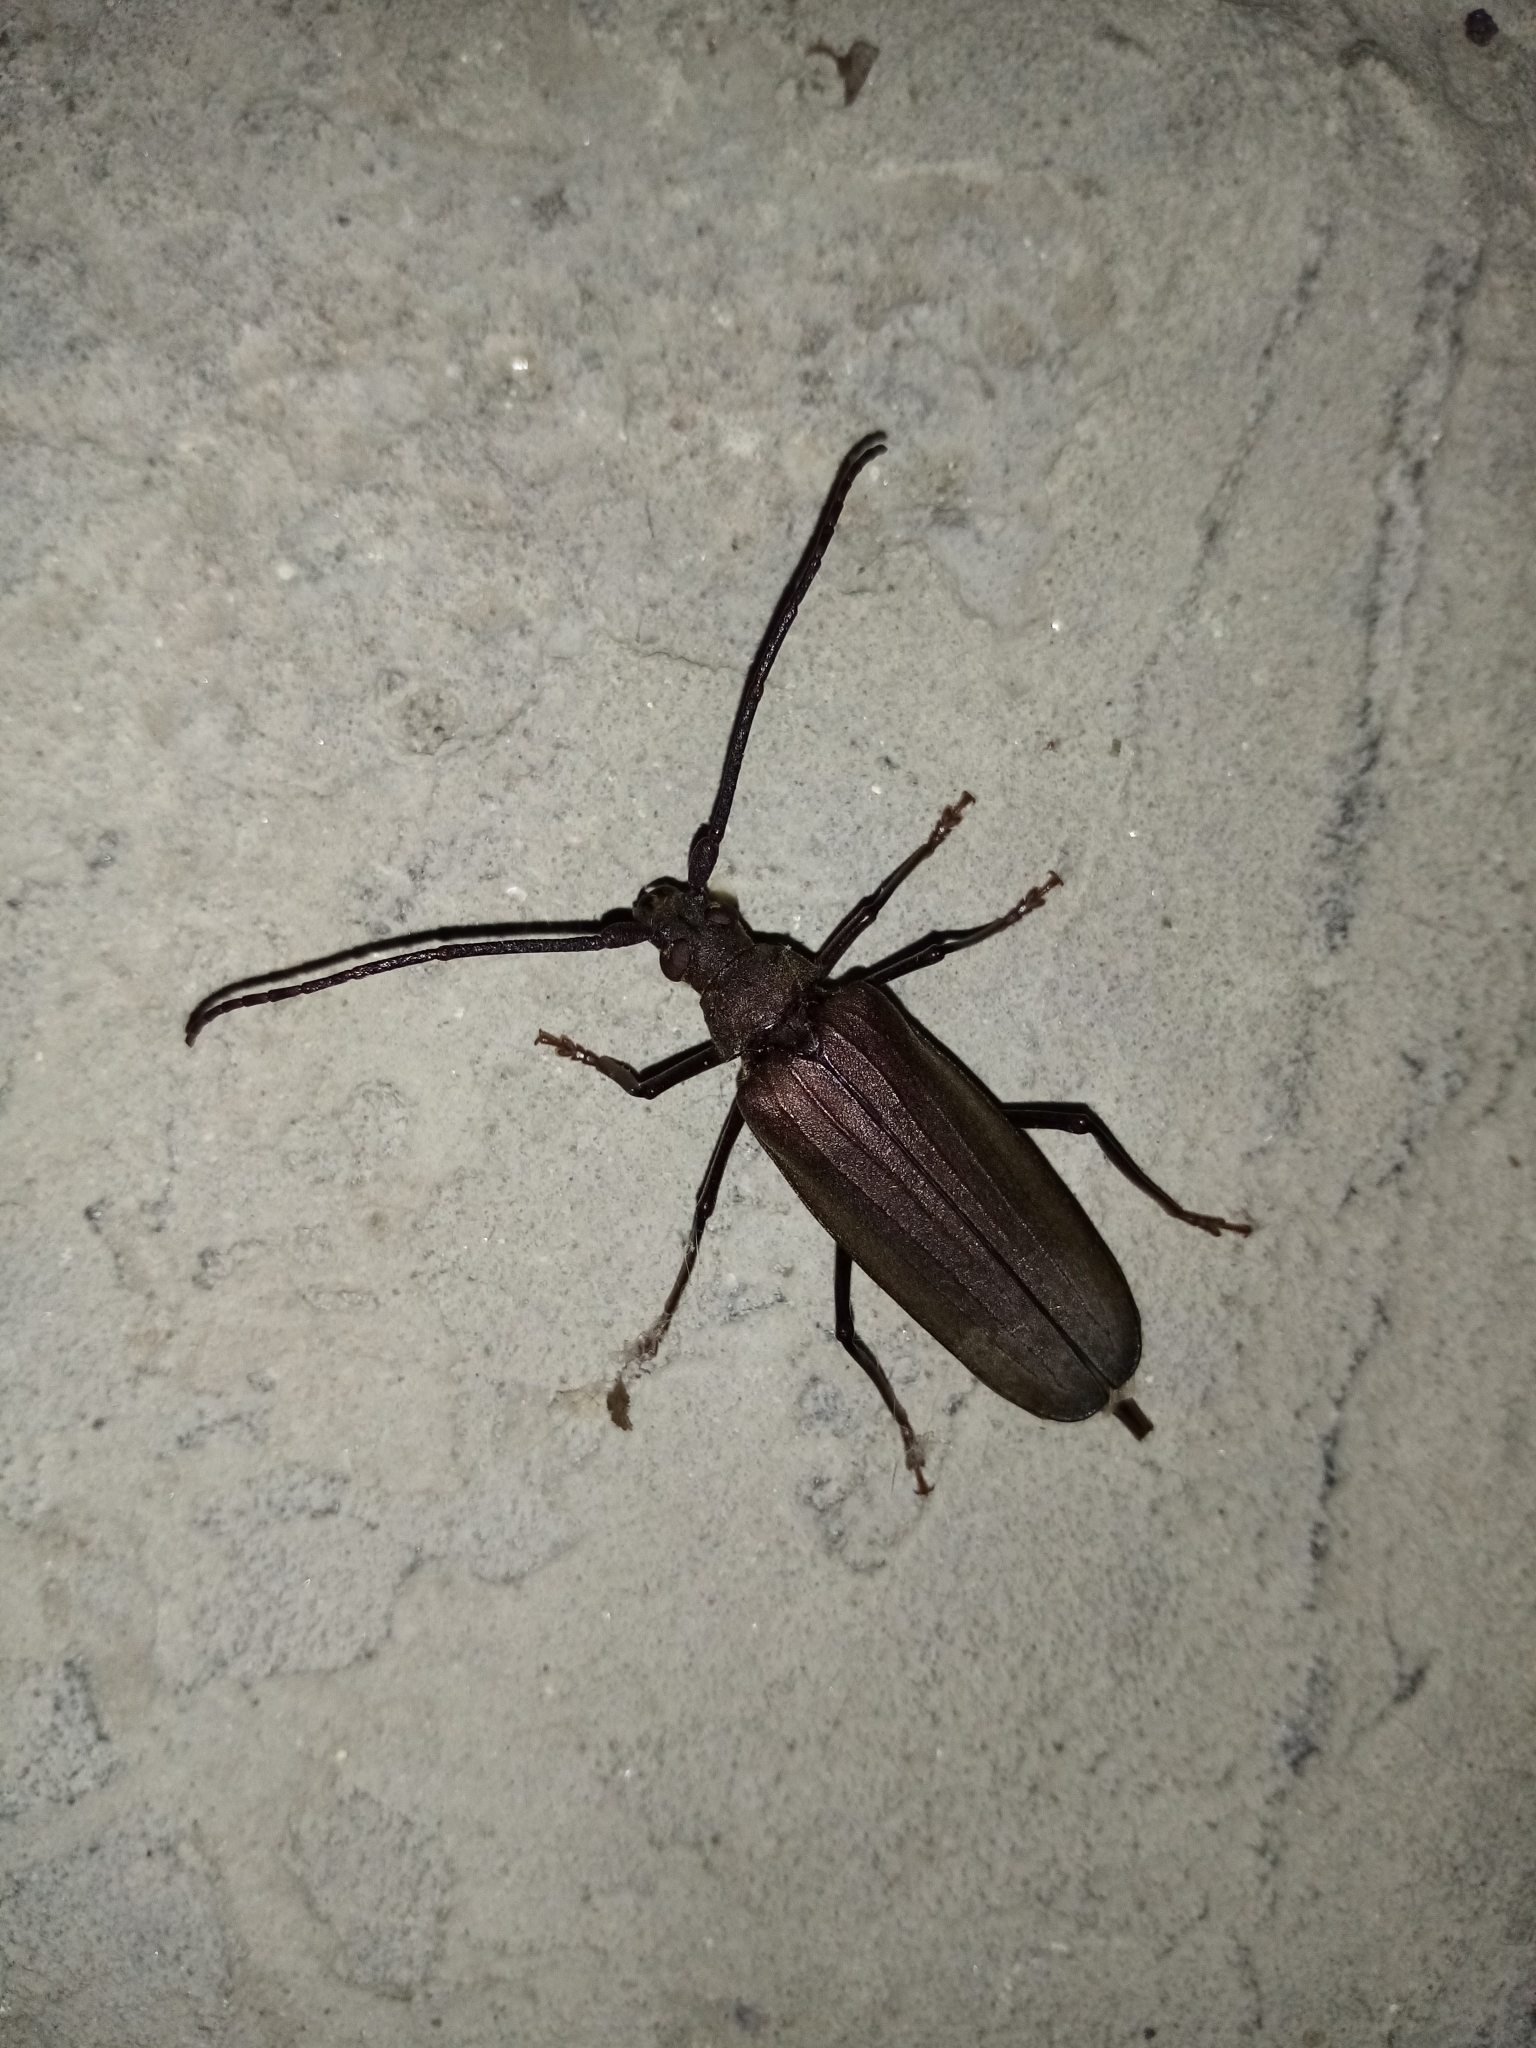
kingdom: Animalia
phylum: Arthropoda
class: Insecta
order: Coleoptera
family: Cerambycidae
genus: Aegosoma
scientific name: Aegosoma scabricorne
